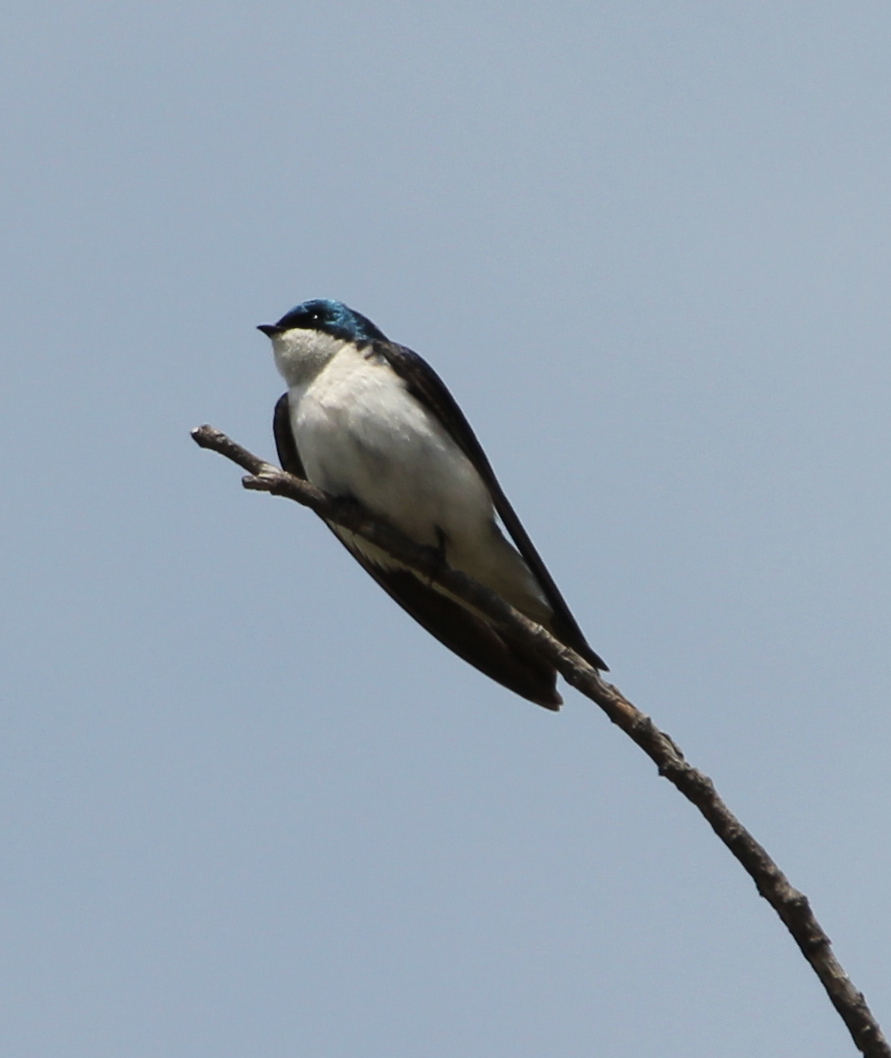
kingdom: Animalia
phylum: Chordata
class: Aves
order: Passeriformes
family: Hirundinidae
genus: Tachycineta
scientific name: Tachycineta bicolor
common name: Tree swallow
